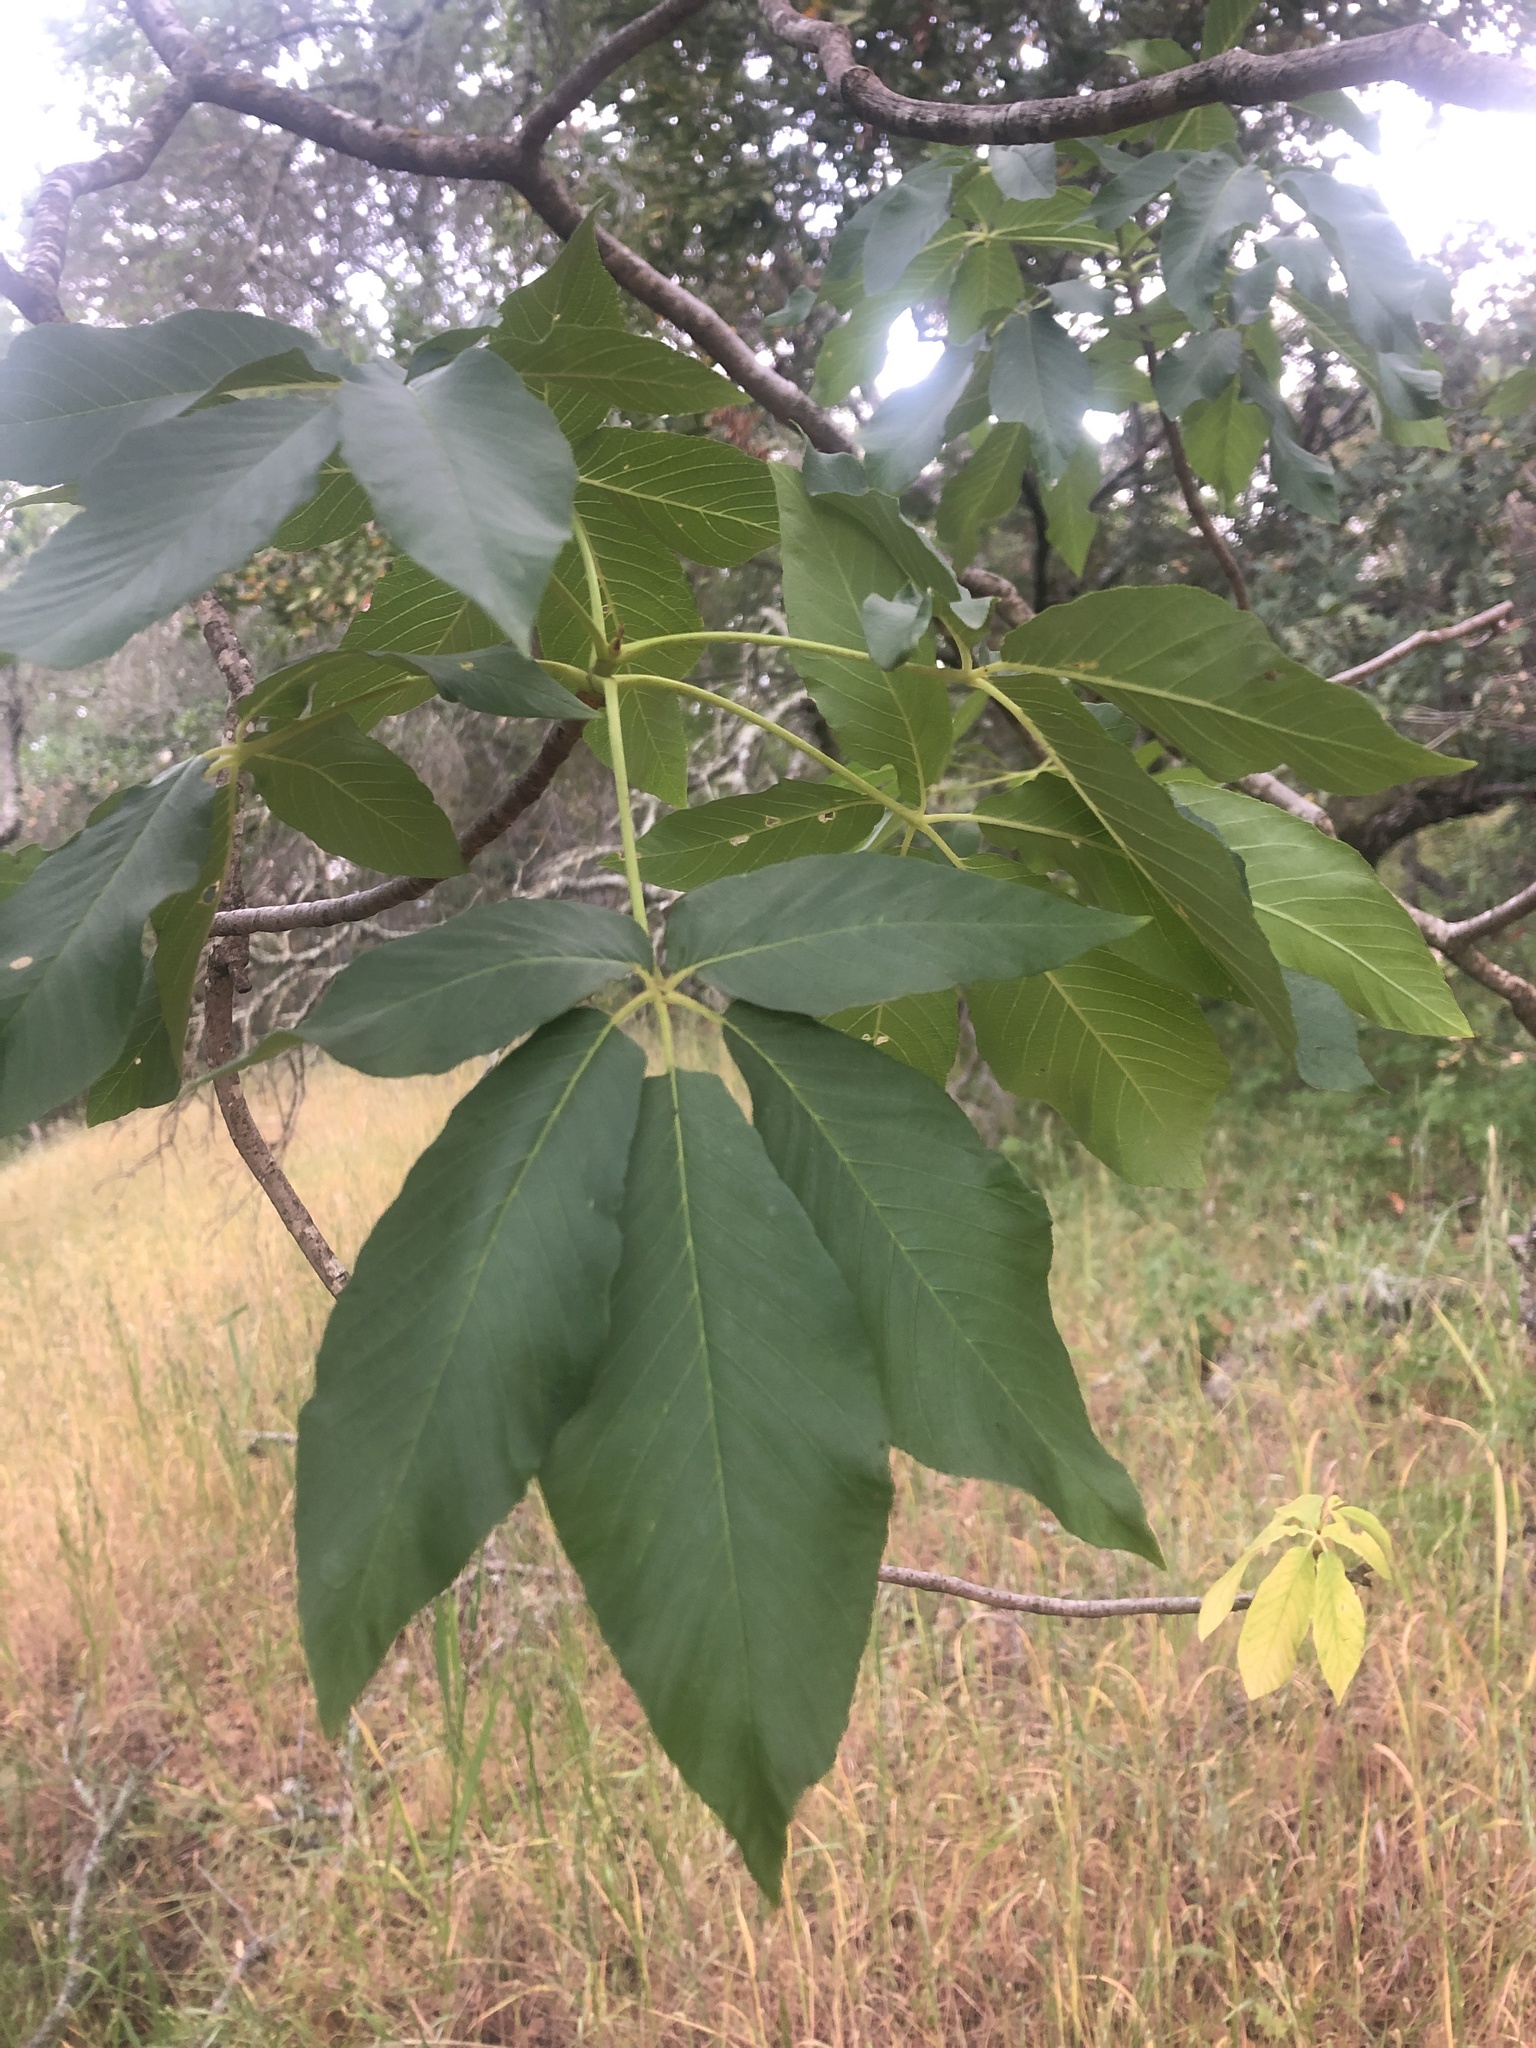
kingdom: Plantae
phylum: Tracheophyta
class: Magnoliopsida
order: Sapindales
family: Sapindaceae
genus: Aesculus
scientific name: Aesculus californica
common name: California buckeye
